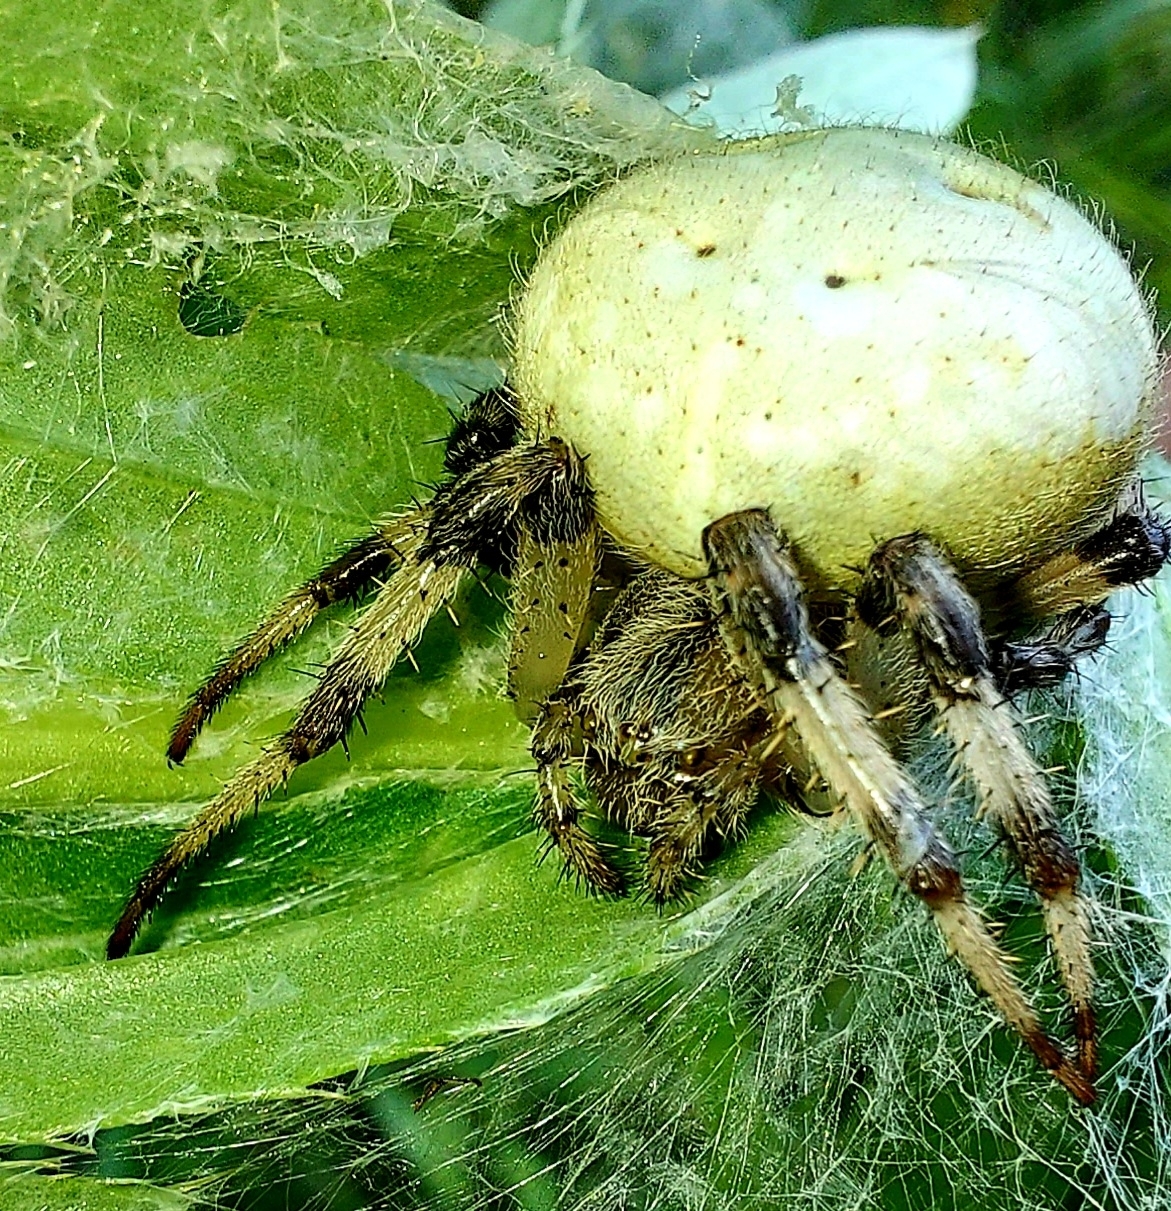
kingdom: Animalia
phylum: Arthropoda
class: Arachnida
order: Araneae
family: Araneidae
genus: Araneus
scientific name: Araneus quadratus
